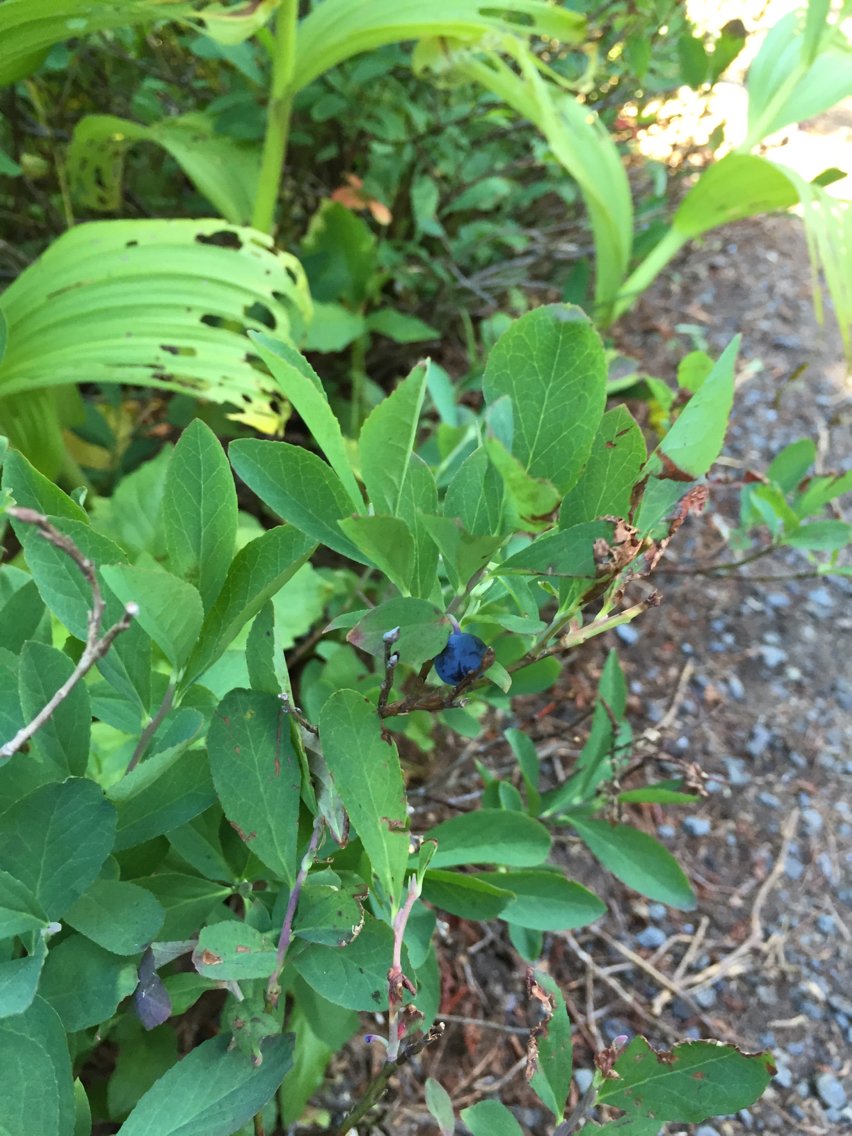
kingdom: Plantae
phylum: Tracheophyta
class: Magnoliopsida
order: Ericales
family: Ericaceae
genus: Vaccinium
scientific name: Vaccinium deliciosum
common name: Cascade bilberry
